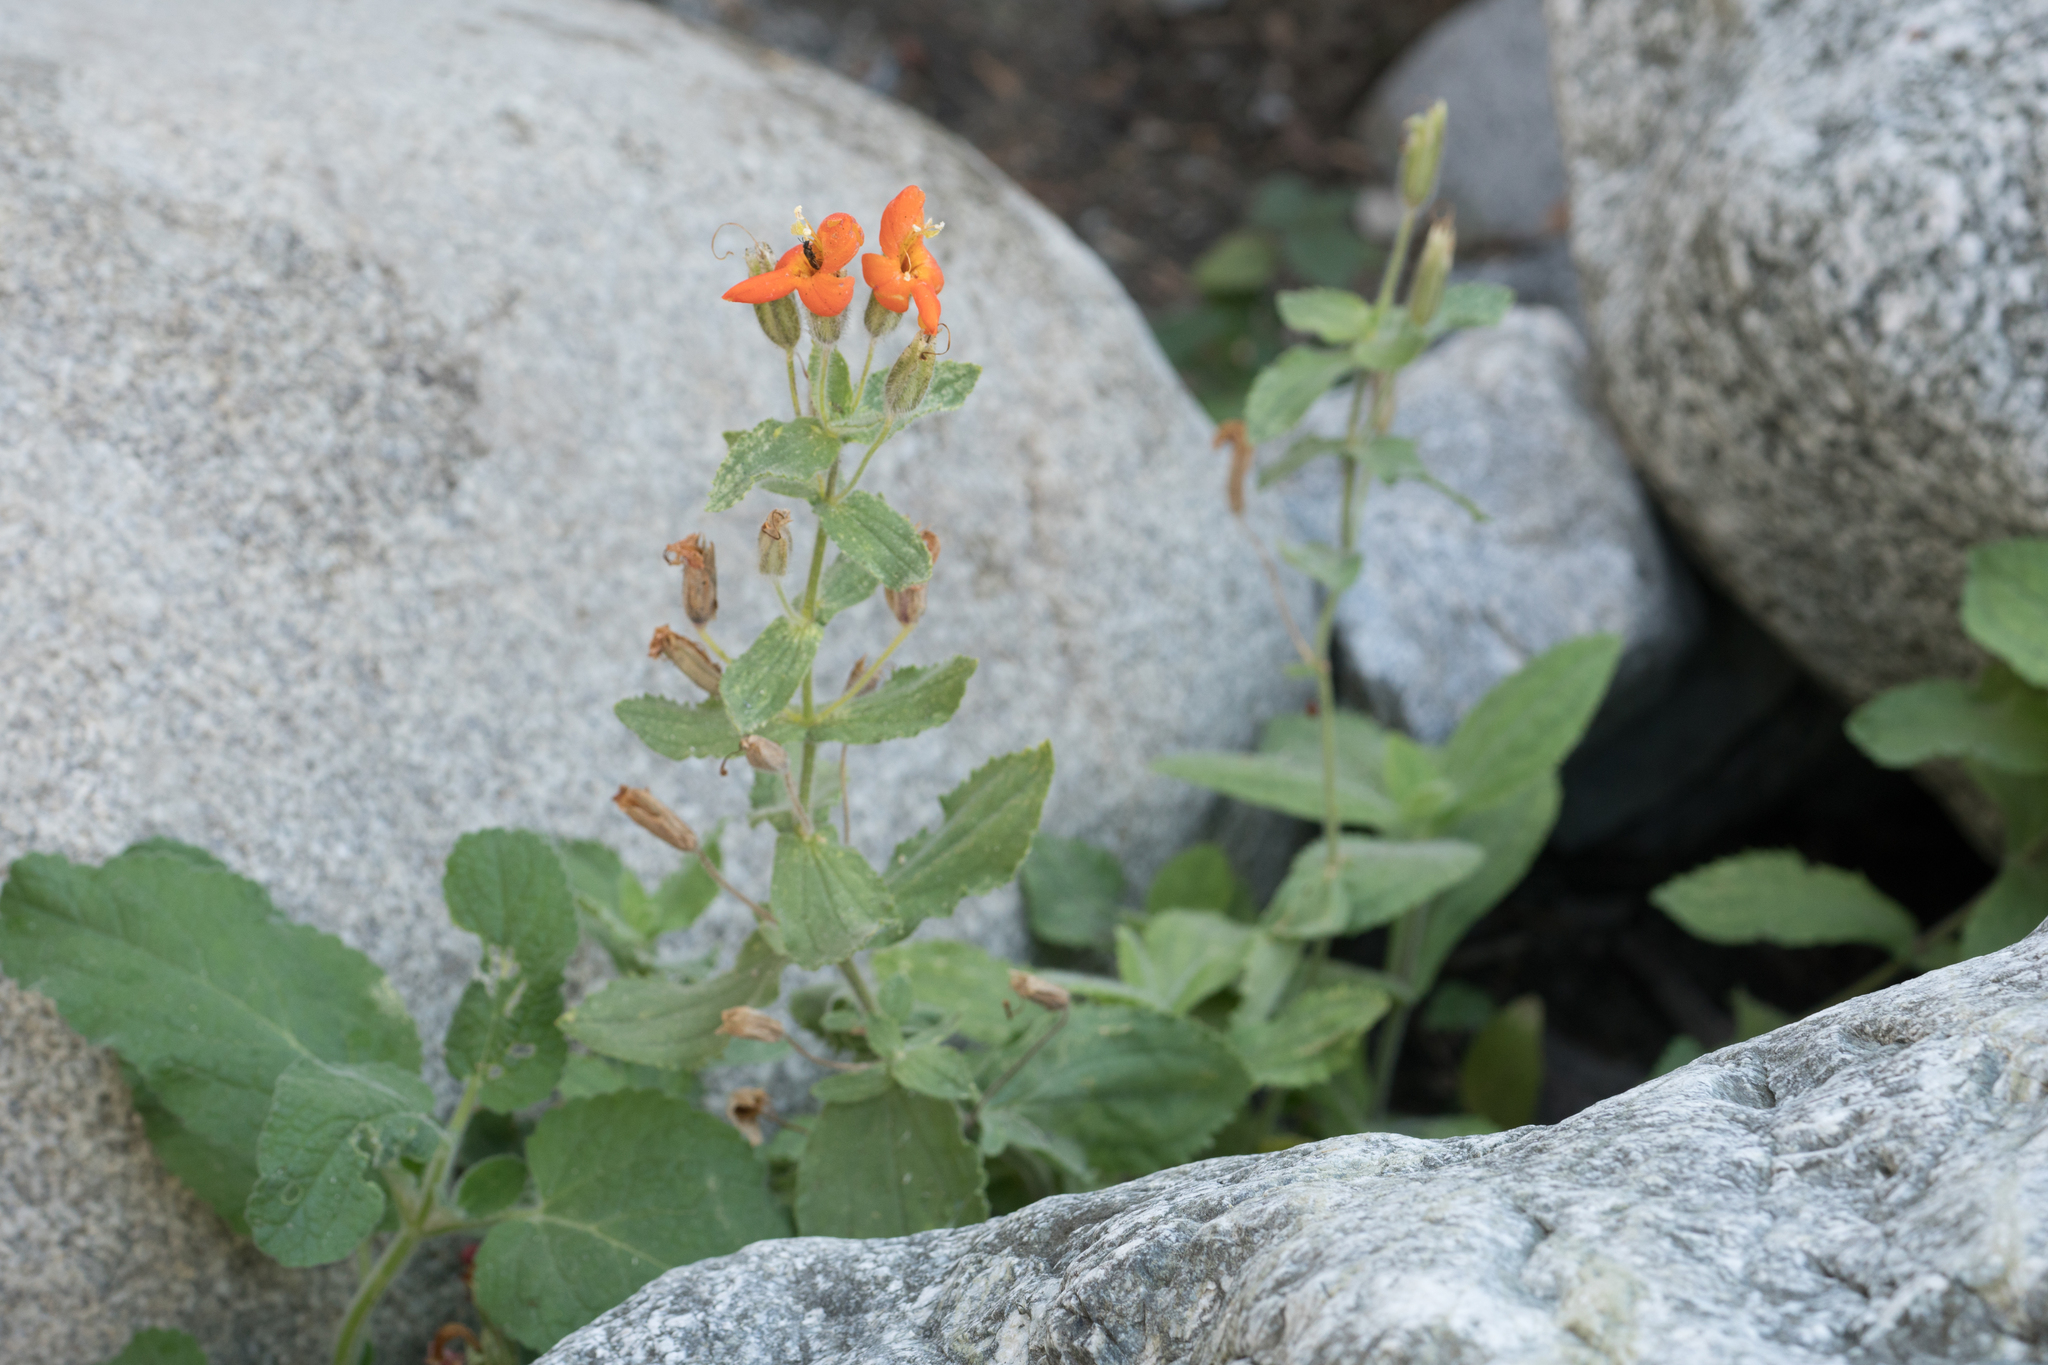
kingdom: Plantae
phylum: Tracheophyta
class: Magnoliopsida
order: Lamiales
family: Phrymaceae
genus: Erythranthe
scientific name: Erythranthe cardinalis
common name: Scarlet monkey-flower
